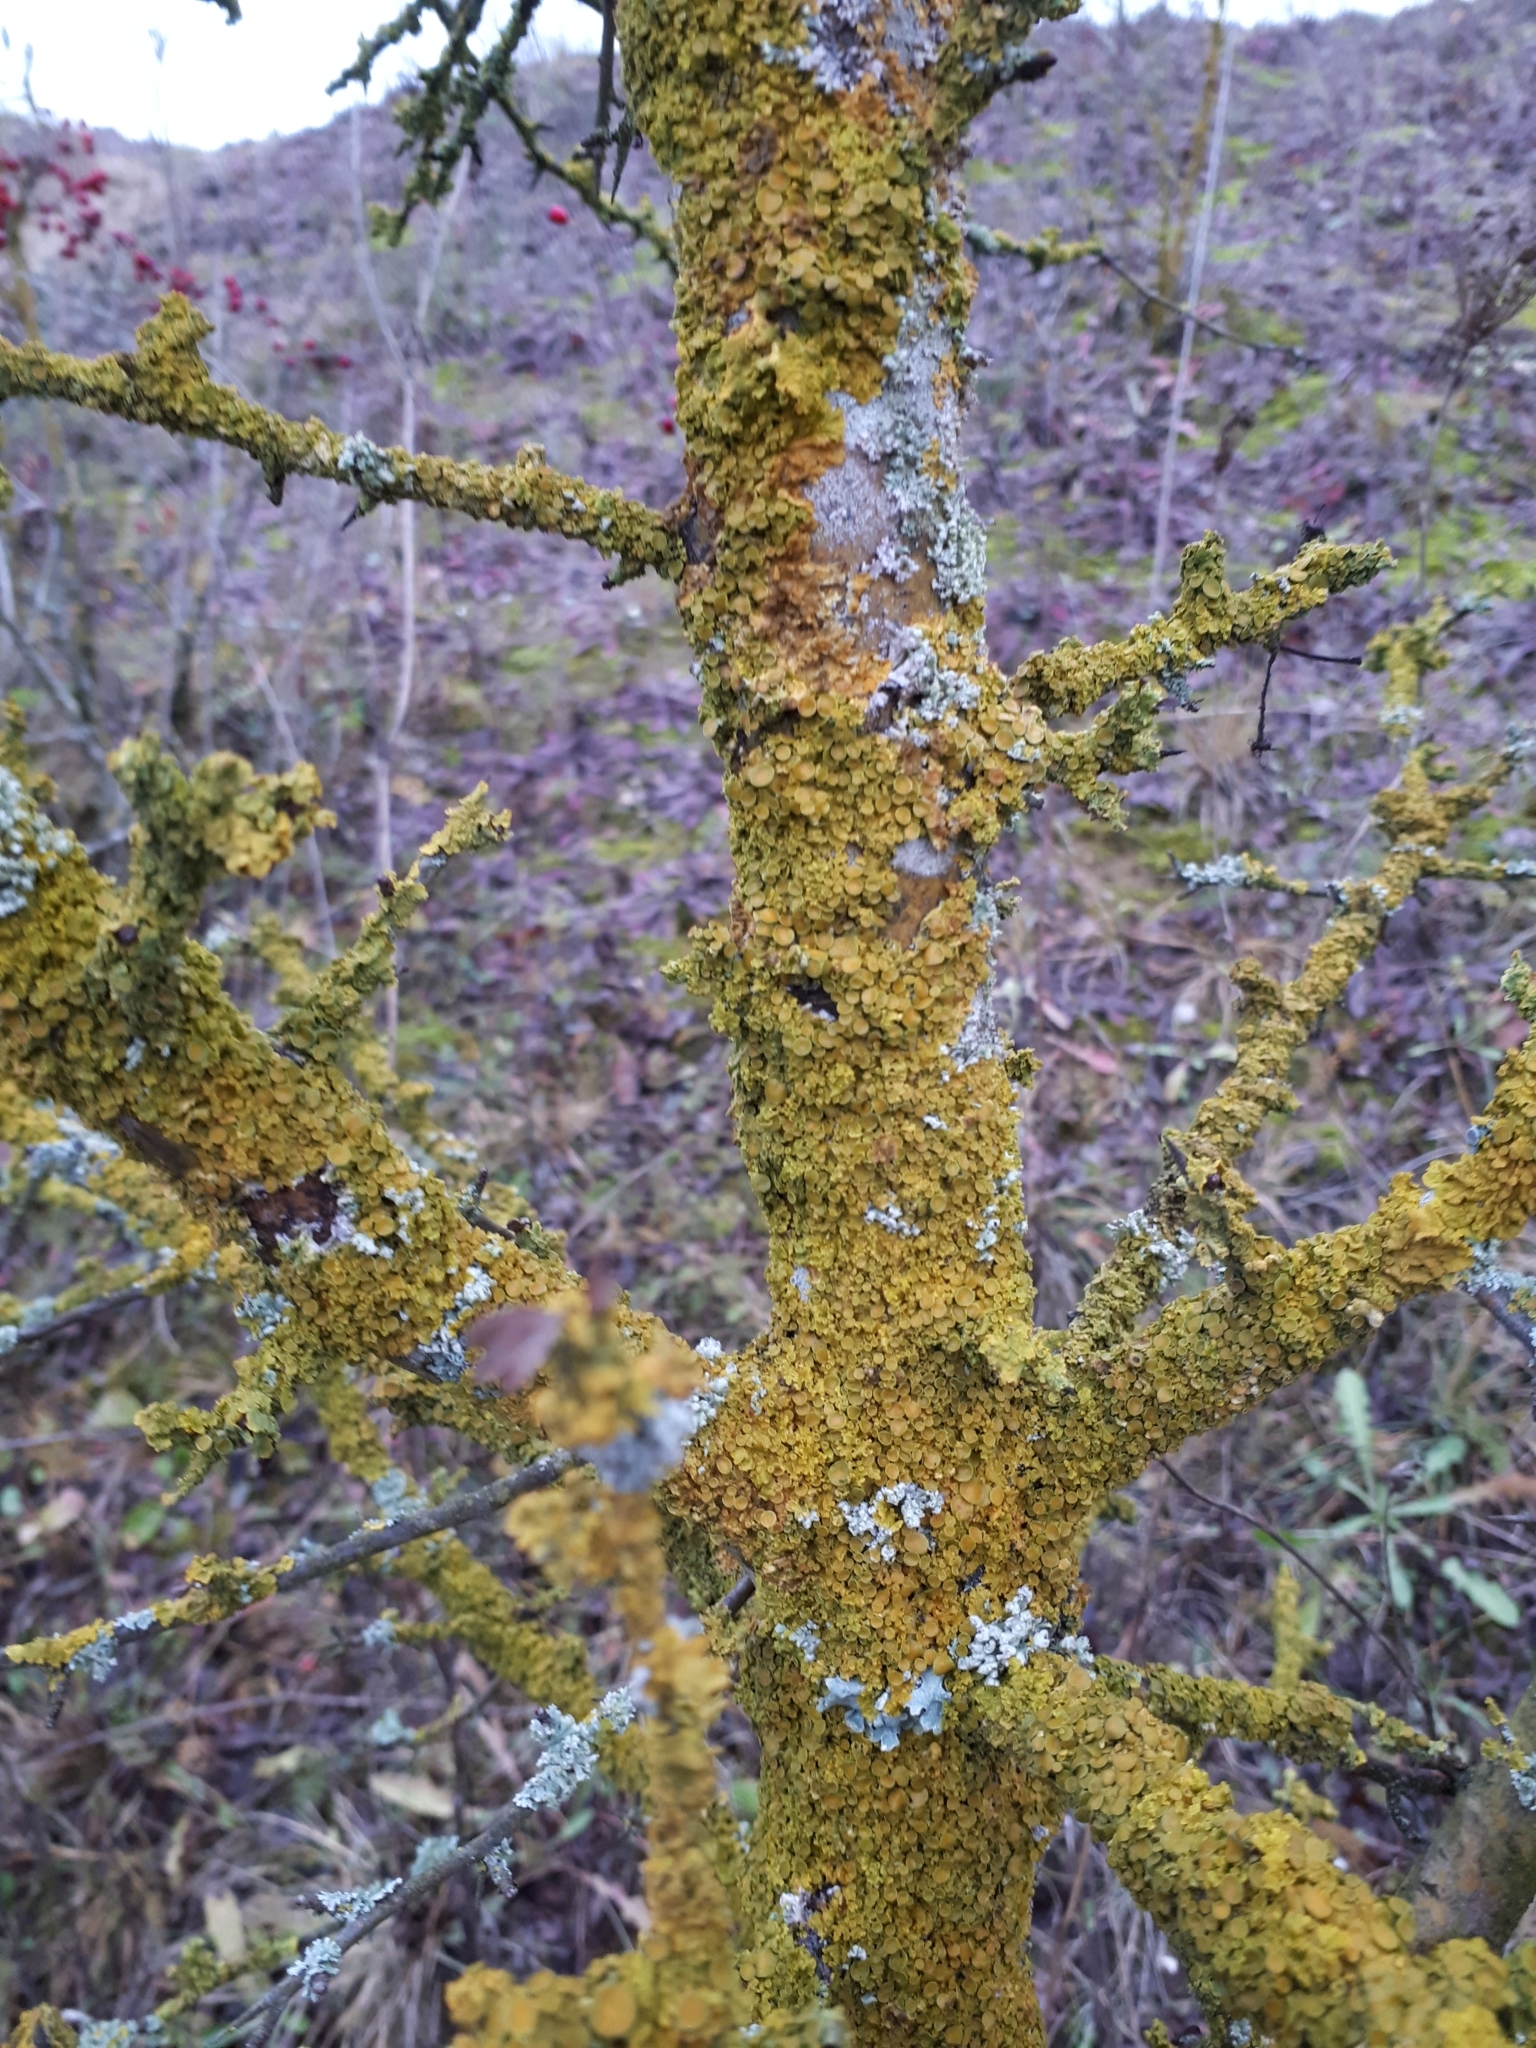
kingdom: Fungi
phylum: Ascomycota
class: Lecanoromycetes
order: Teloschistales
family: Teloschistaceae
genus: Xanthoria
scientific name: Xanthoria parietina
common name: Common orange lichen
